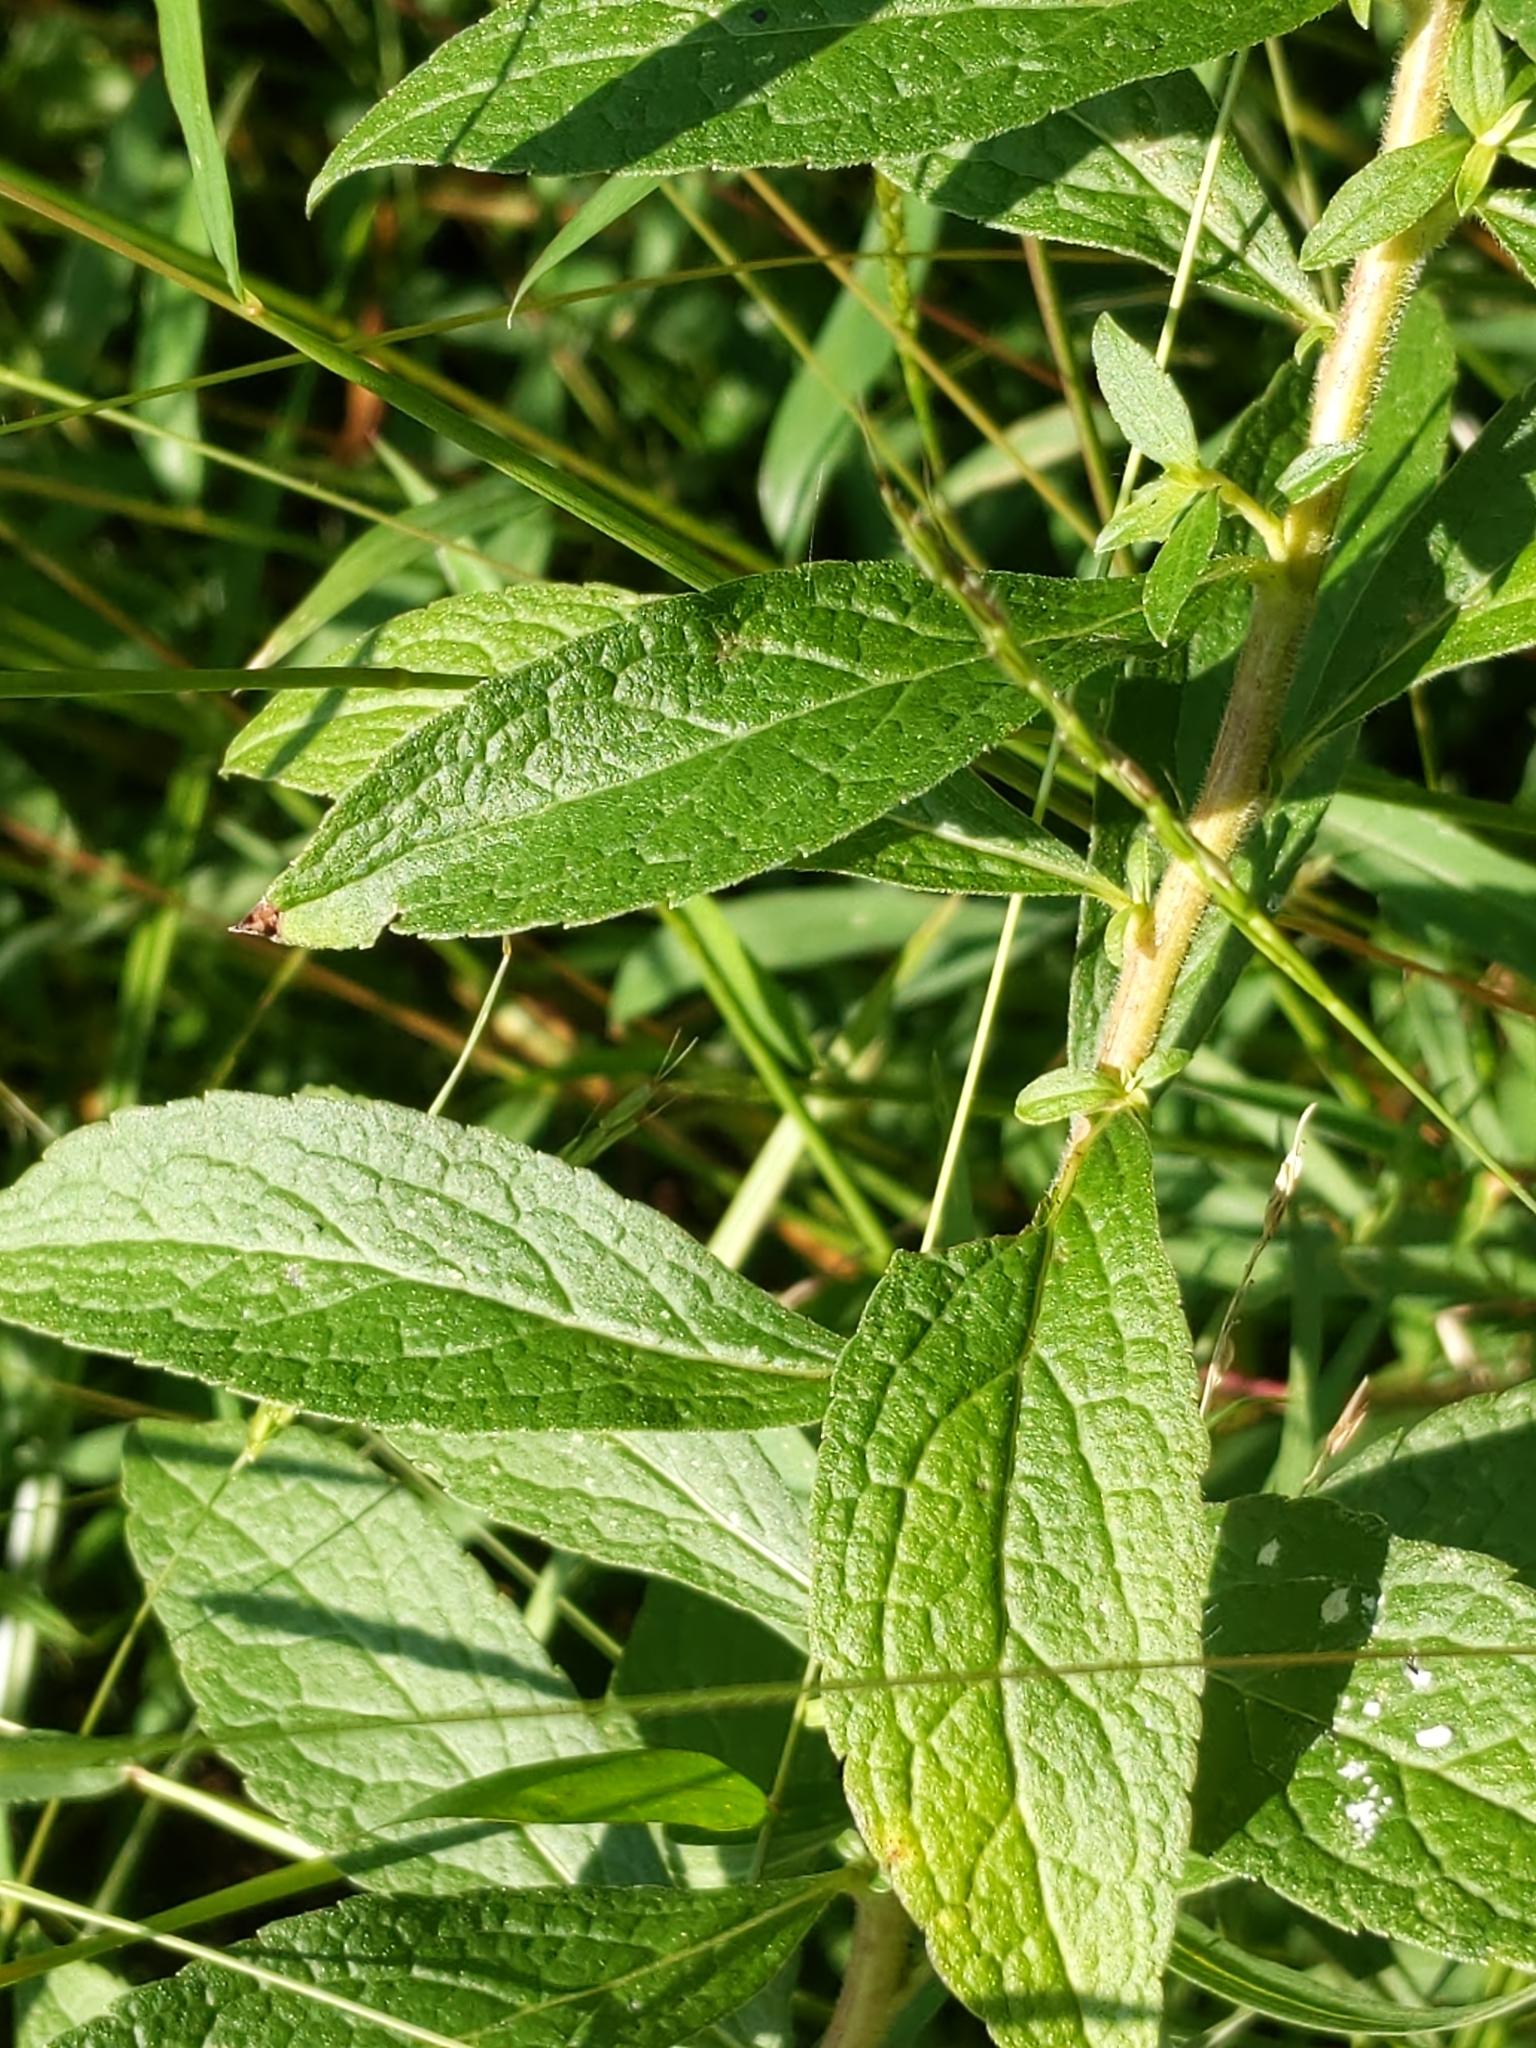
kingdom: Plantae
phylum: Tracheophyta
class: Magnoliopsida
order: Asterales
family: Asteraceae
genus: Solidago
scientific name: Solidago rugosa
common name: Rough-stemmed goldenrod
